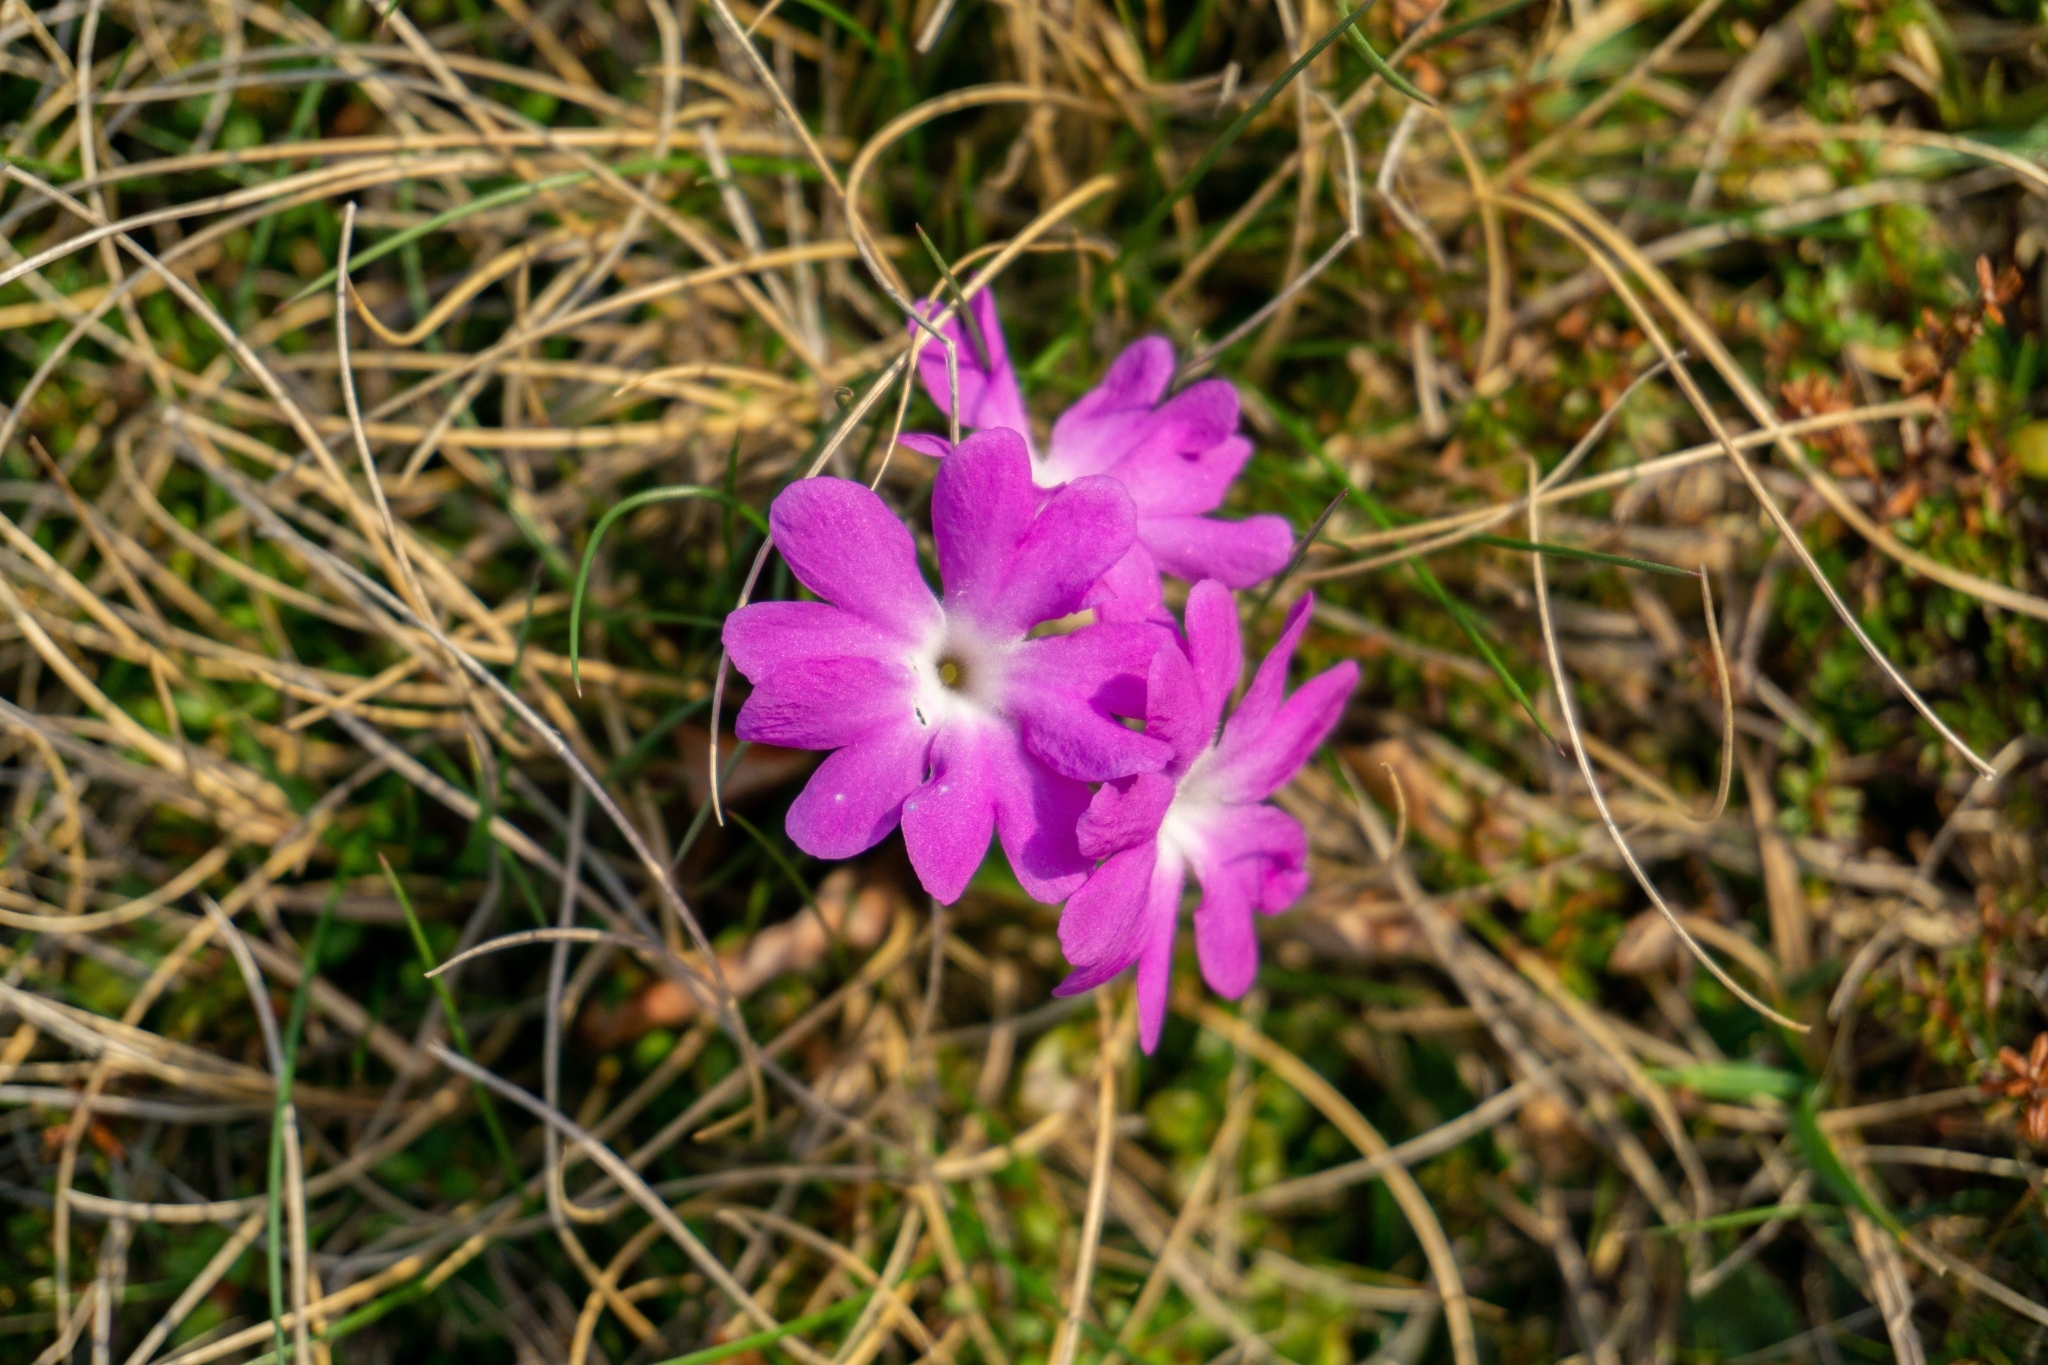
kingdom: Plantae
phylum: Tracheophyta
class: Magnoliopsida
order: Ericales
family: Primulaceae
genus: Primula
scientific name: Primula clusiana
